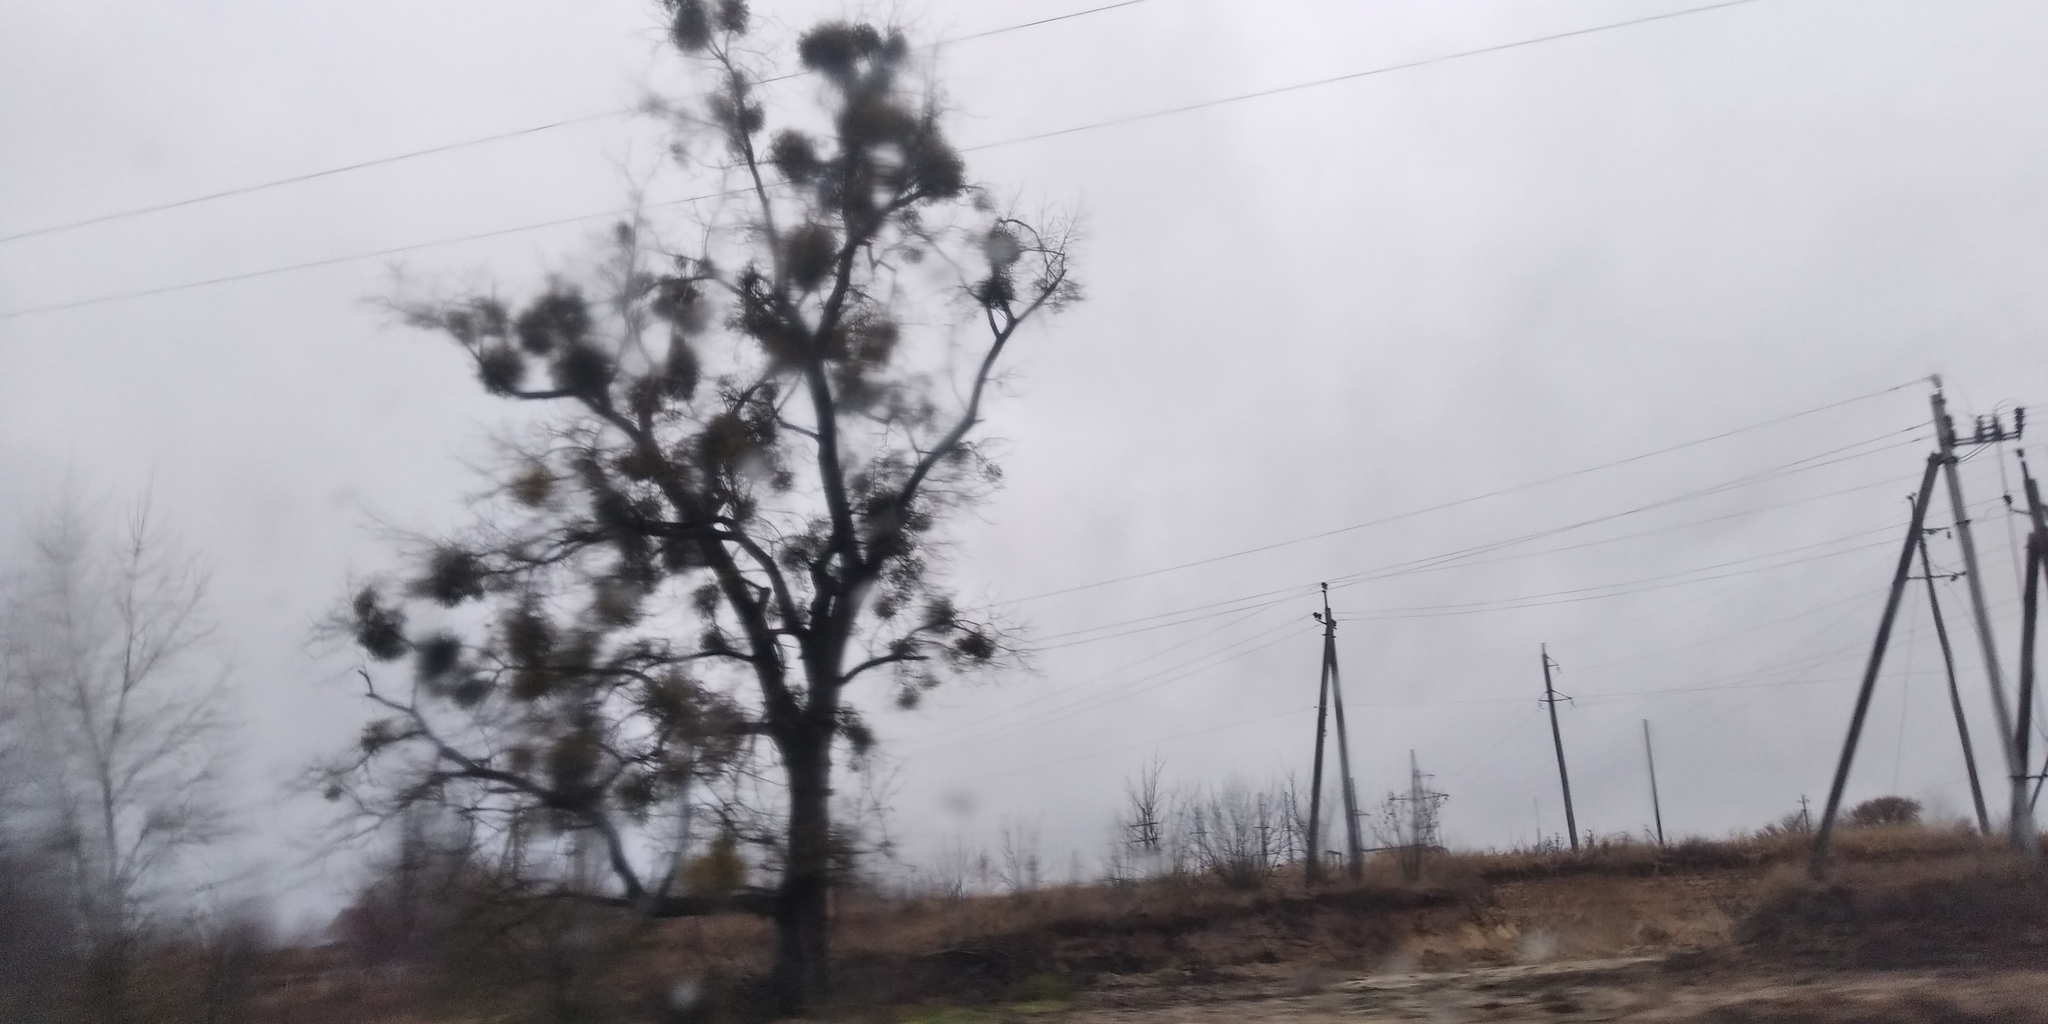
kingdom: Plantae
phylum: Tracheophyta
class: Magnoliopsida
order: Santalales
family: Viscaceae
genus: Viscum
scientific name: Viscum album
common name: Mistletoe
